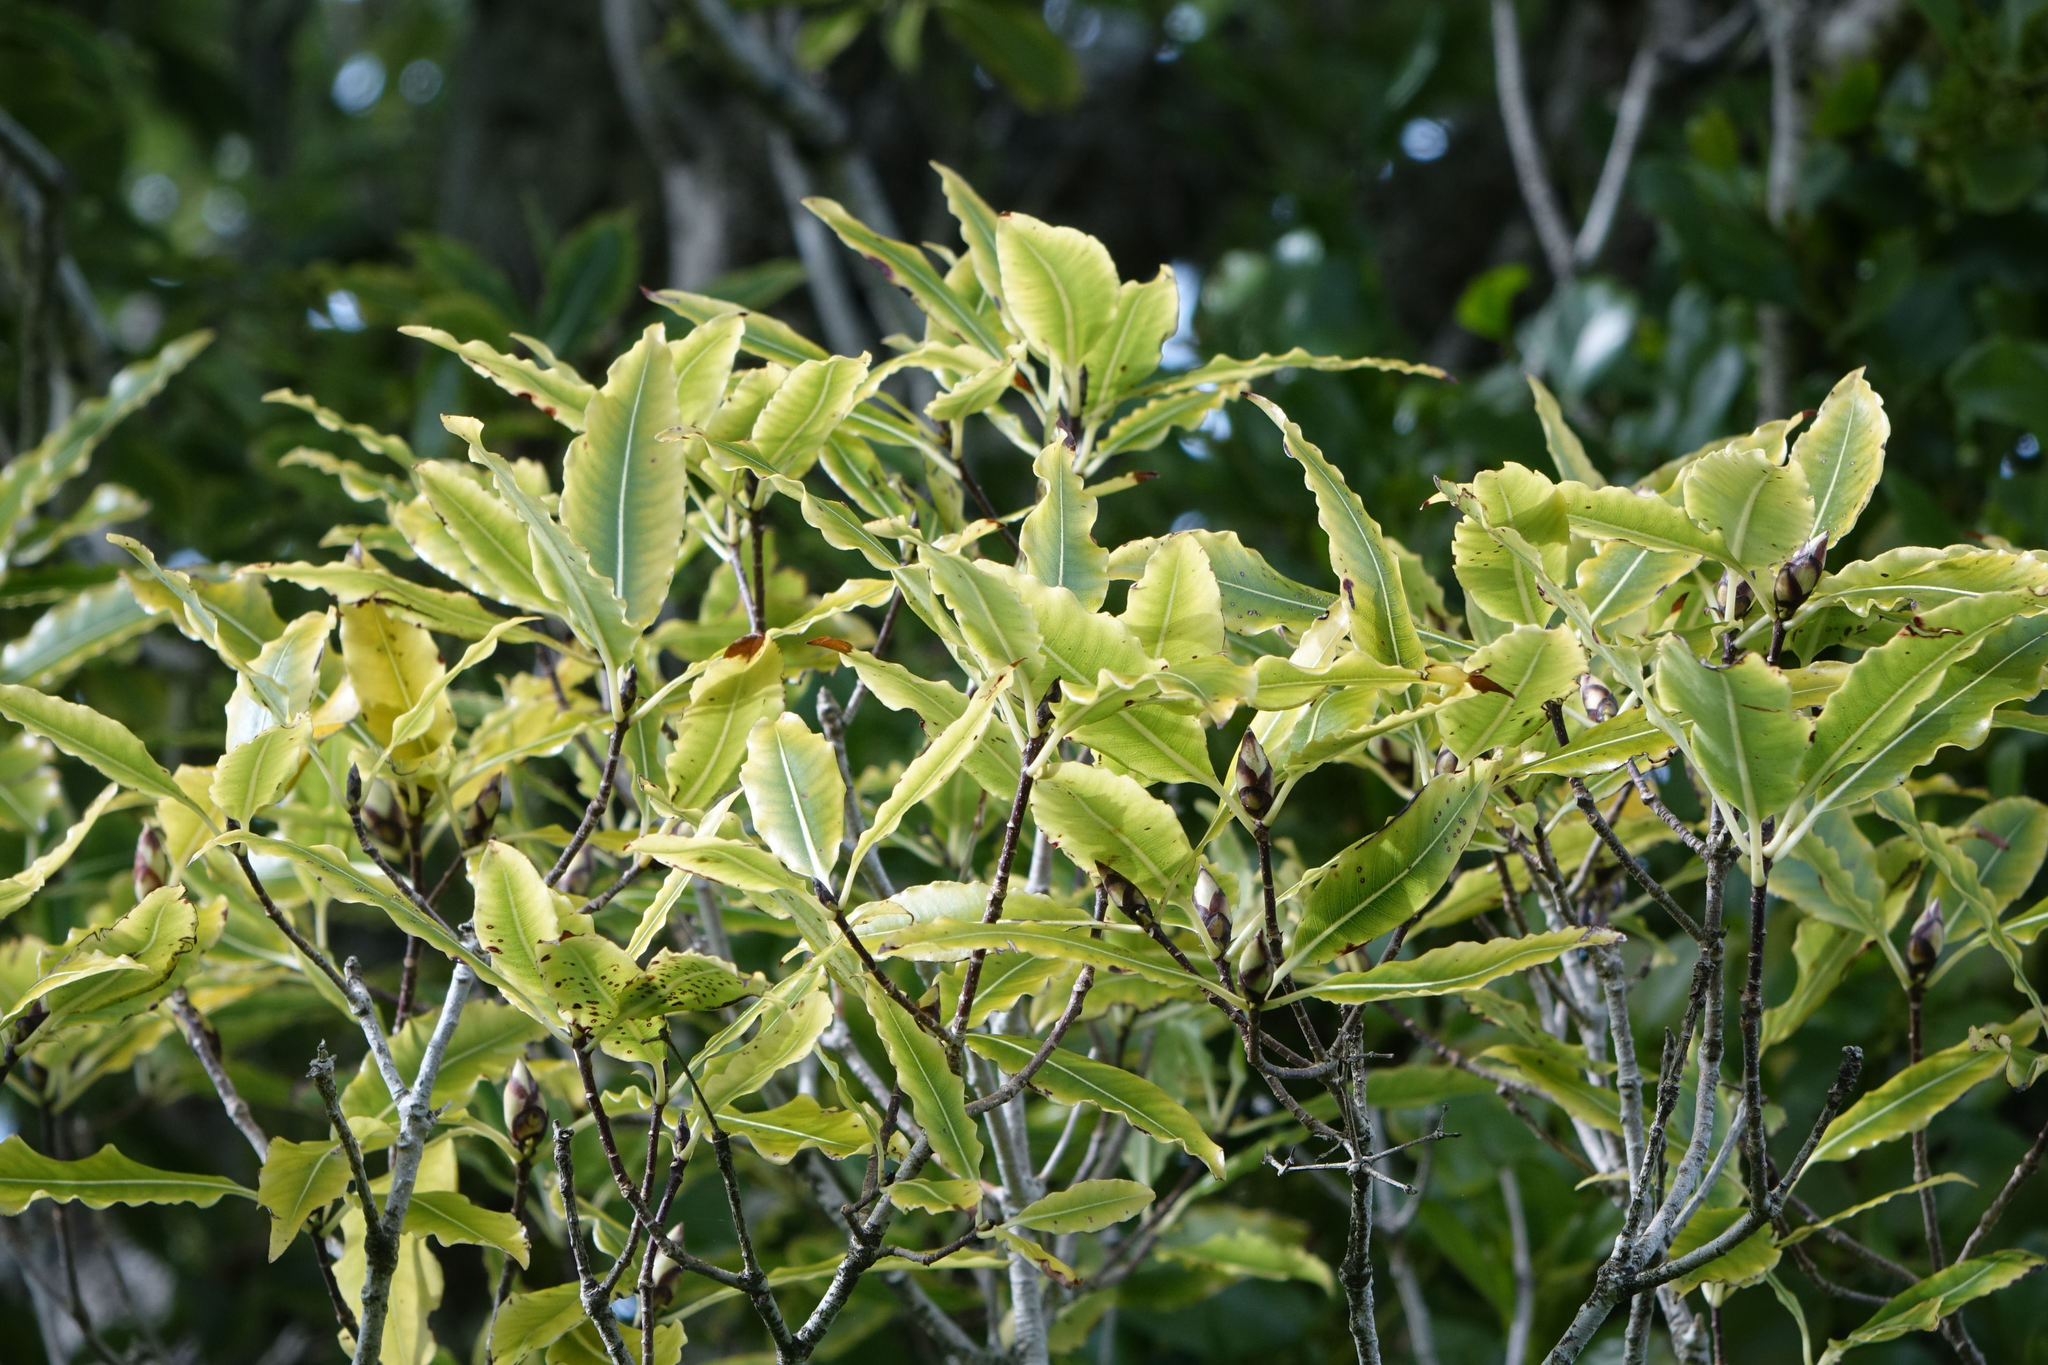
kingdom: Plantae
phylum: Tracheophyta
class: Magnoliopsida
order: Santalales
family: Loranthaceae
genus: Ileostylus
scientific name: Ileostylus micranthus
